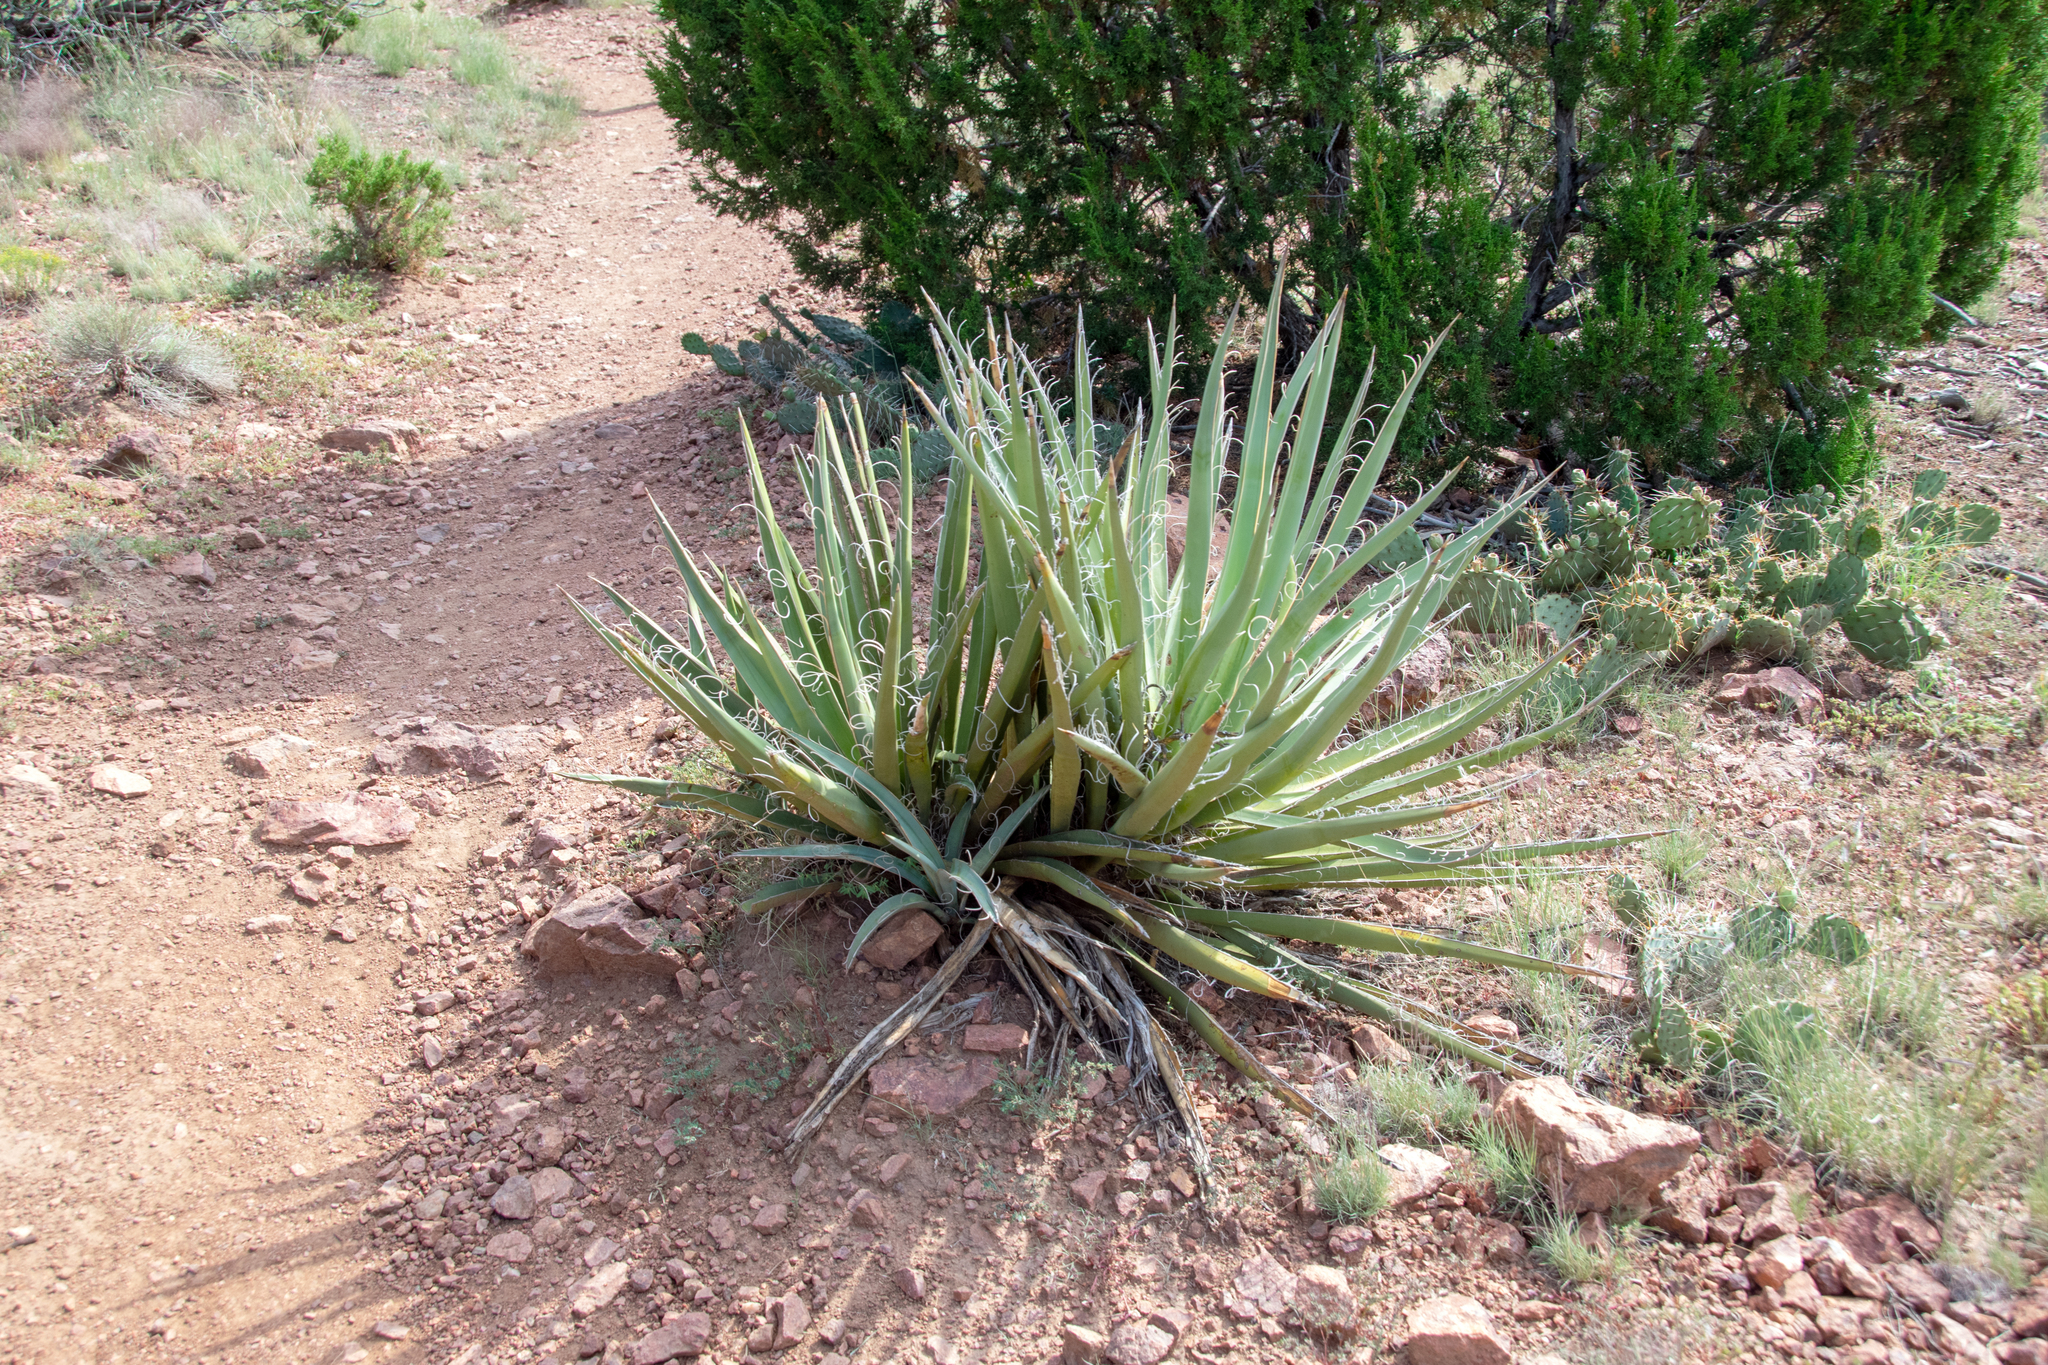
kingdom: Plantae
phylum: Tracheophyta
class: Liliopsida
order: Asparagales
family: Asparagaceae
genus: Yucca
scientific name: Yucca baccata
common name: Banana yucca
